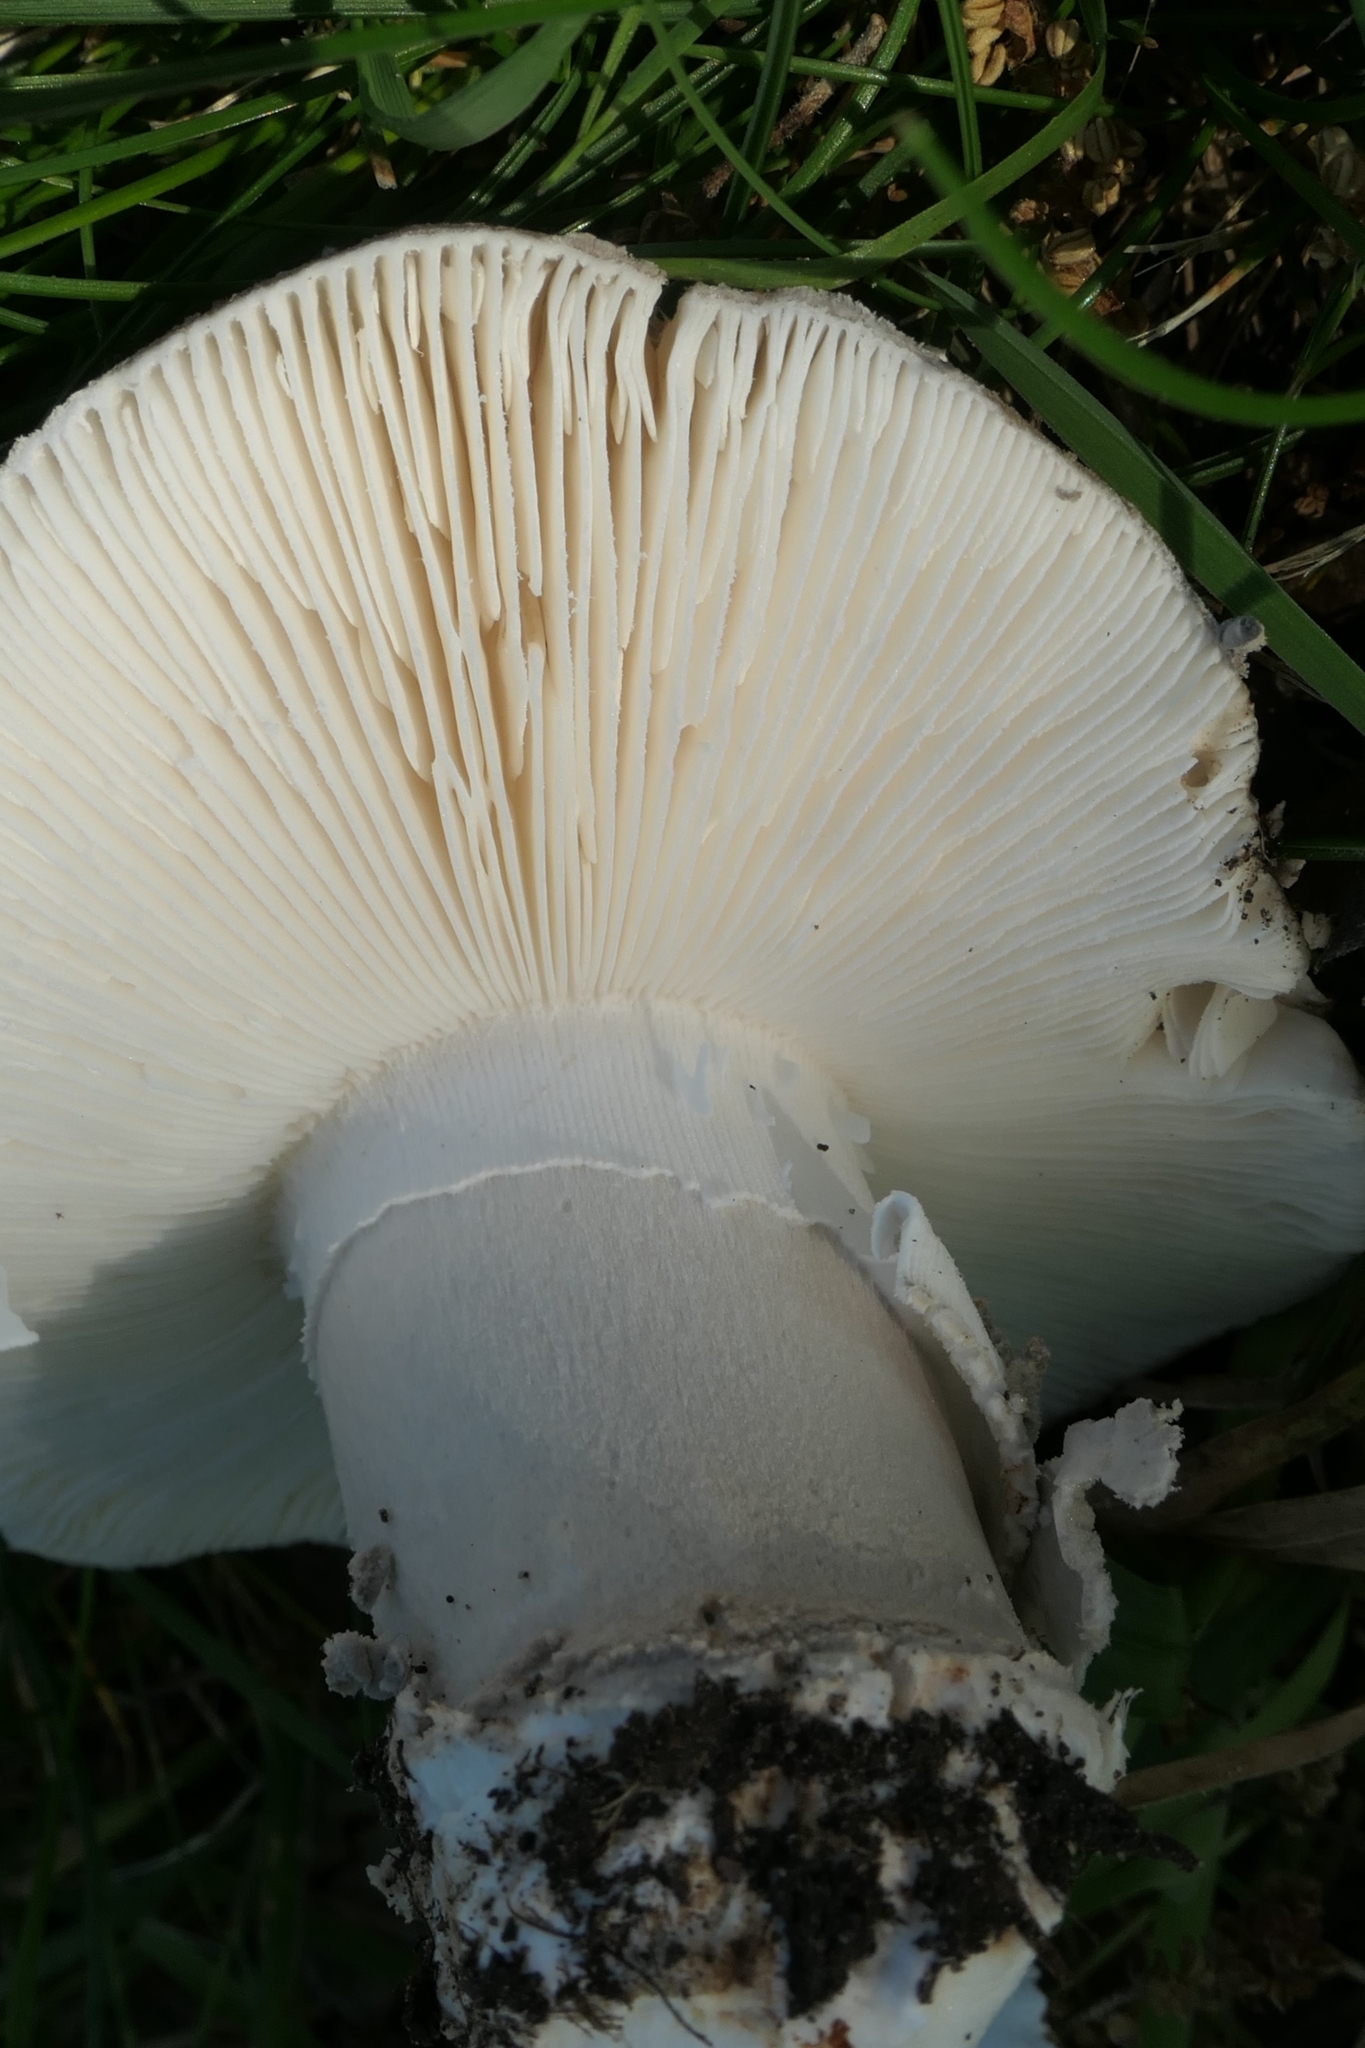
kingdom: Fungi
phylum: Basidiomycota
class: Agaricomycetes
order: Agaricales
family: Amanitaceae
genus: Amanita
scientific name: Amanita excelsa
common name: European false blusher
